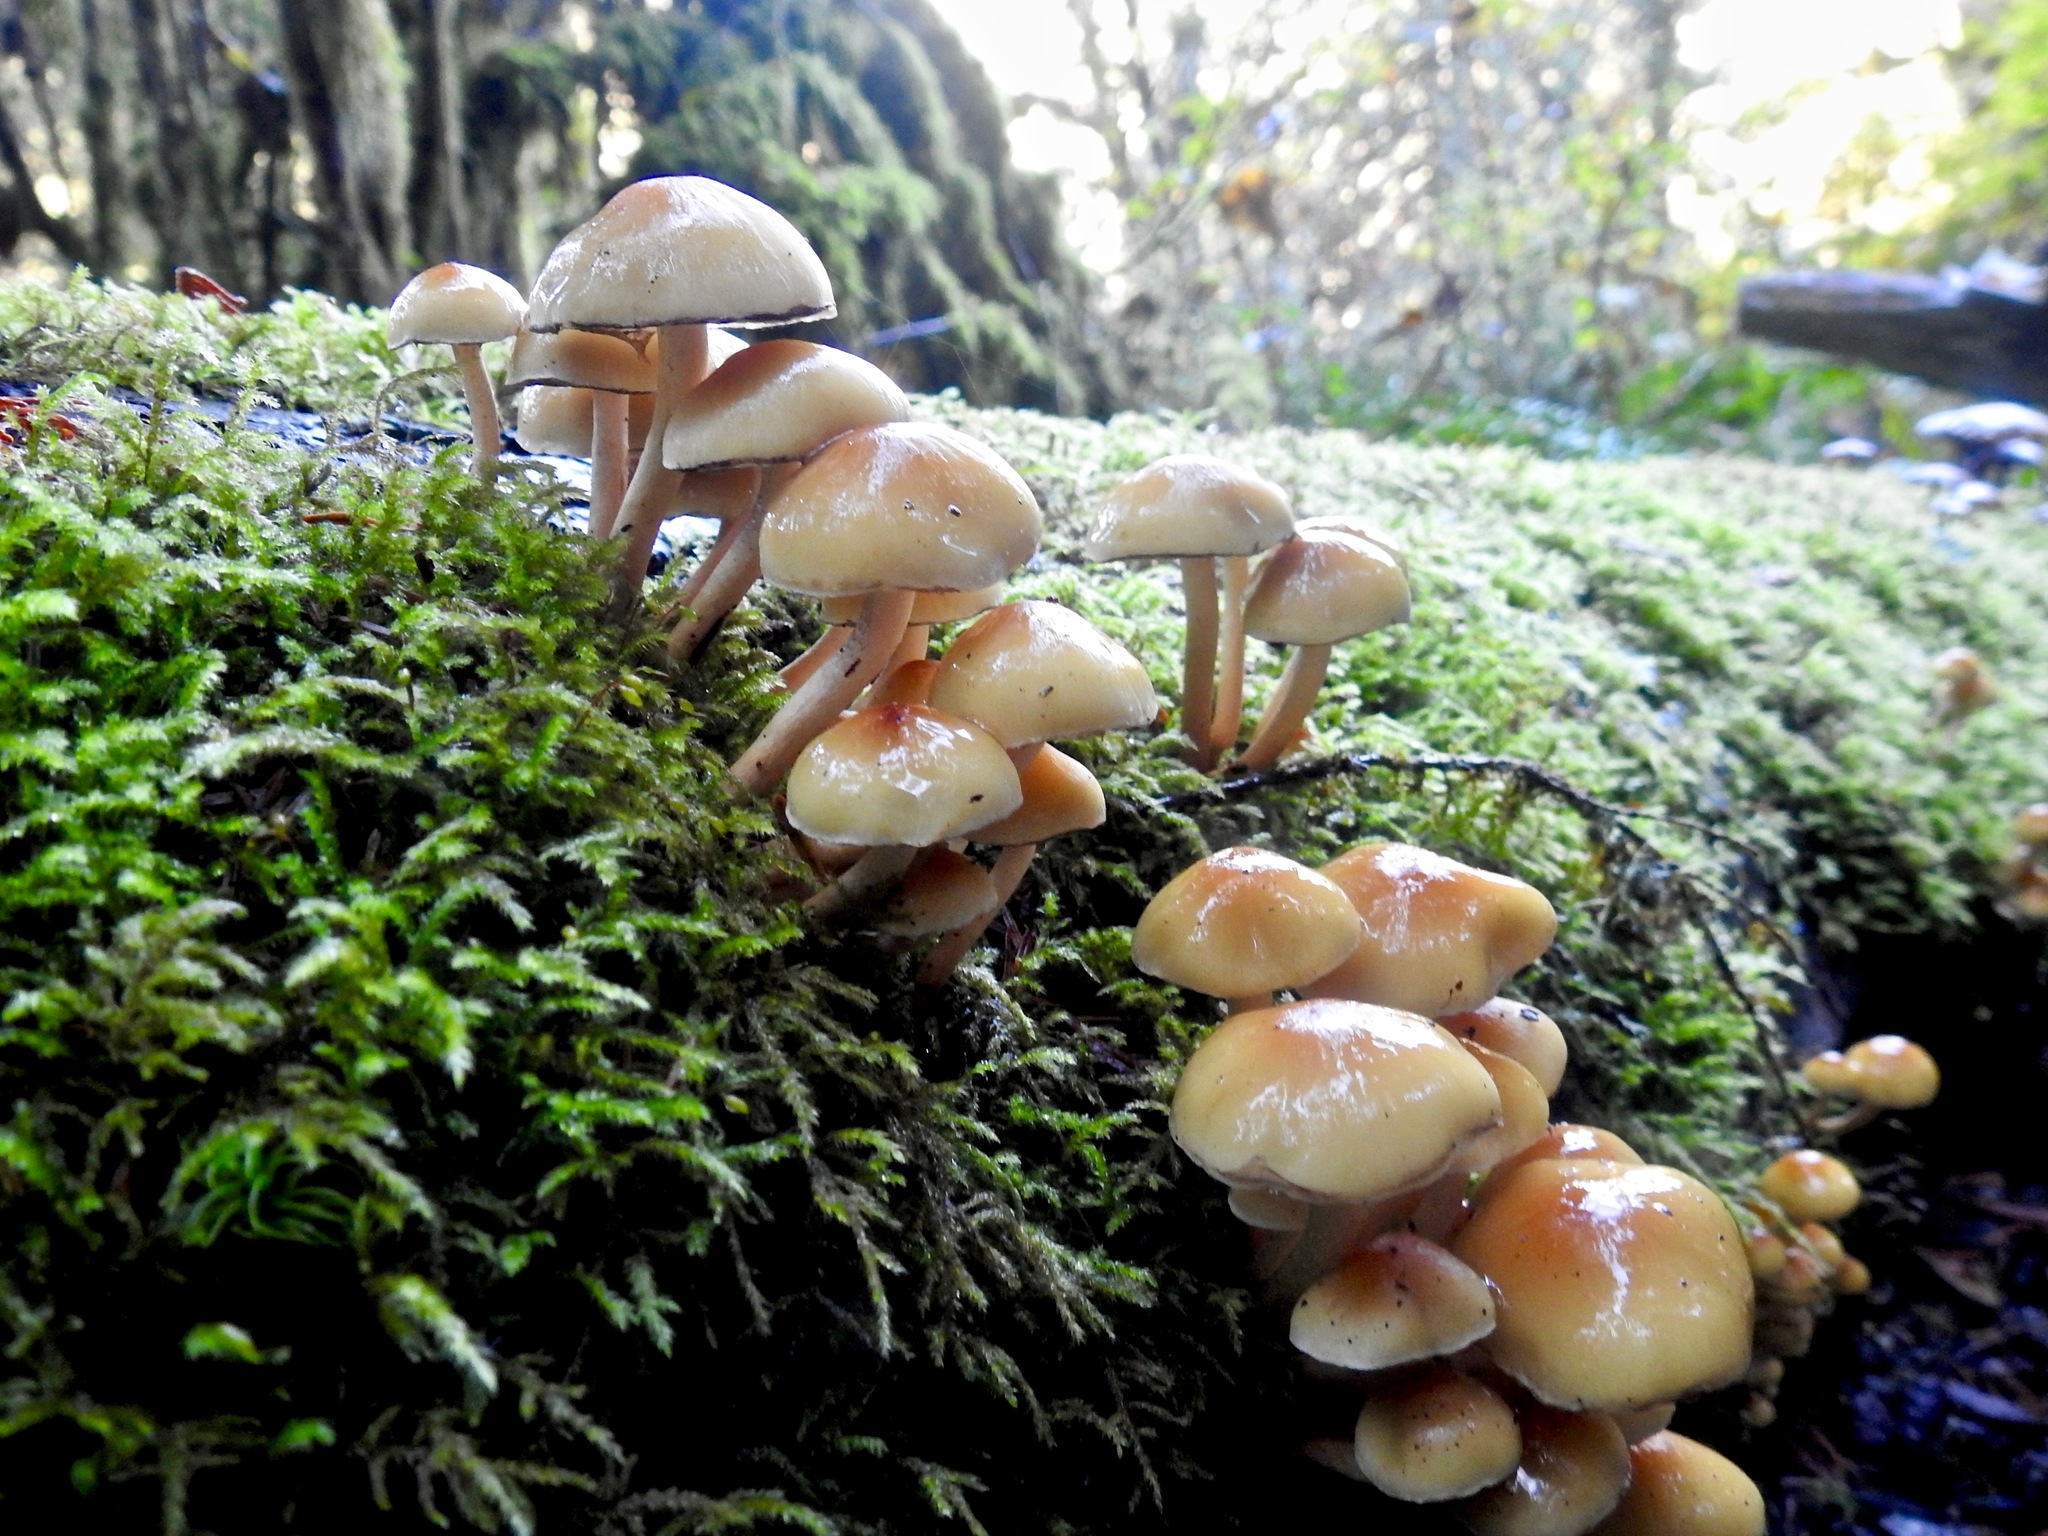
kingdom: Fungi
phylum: Basidiomycota
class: Agaricomycetes
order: Agaricales
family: Strophariaceae
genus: Hypholoma
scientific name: Hypholoma fasciculare
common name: Sulphur tuft
